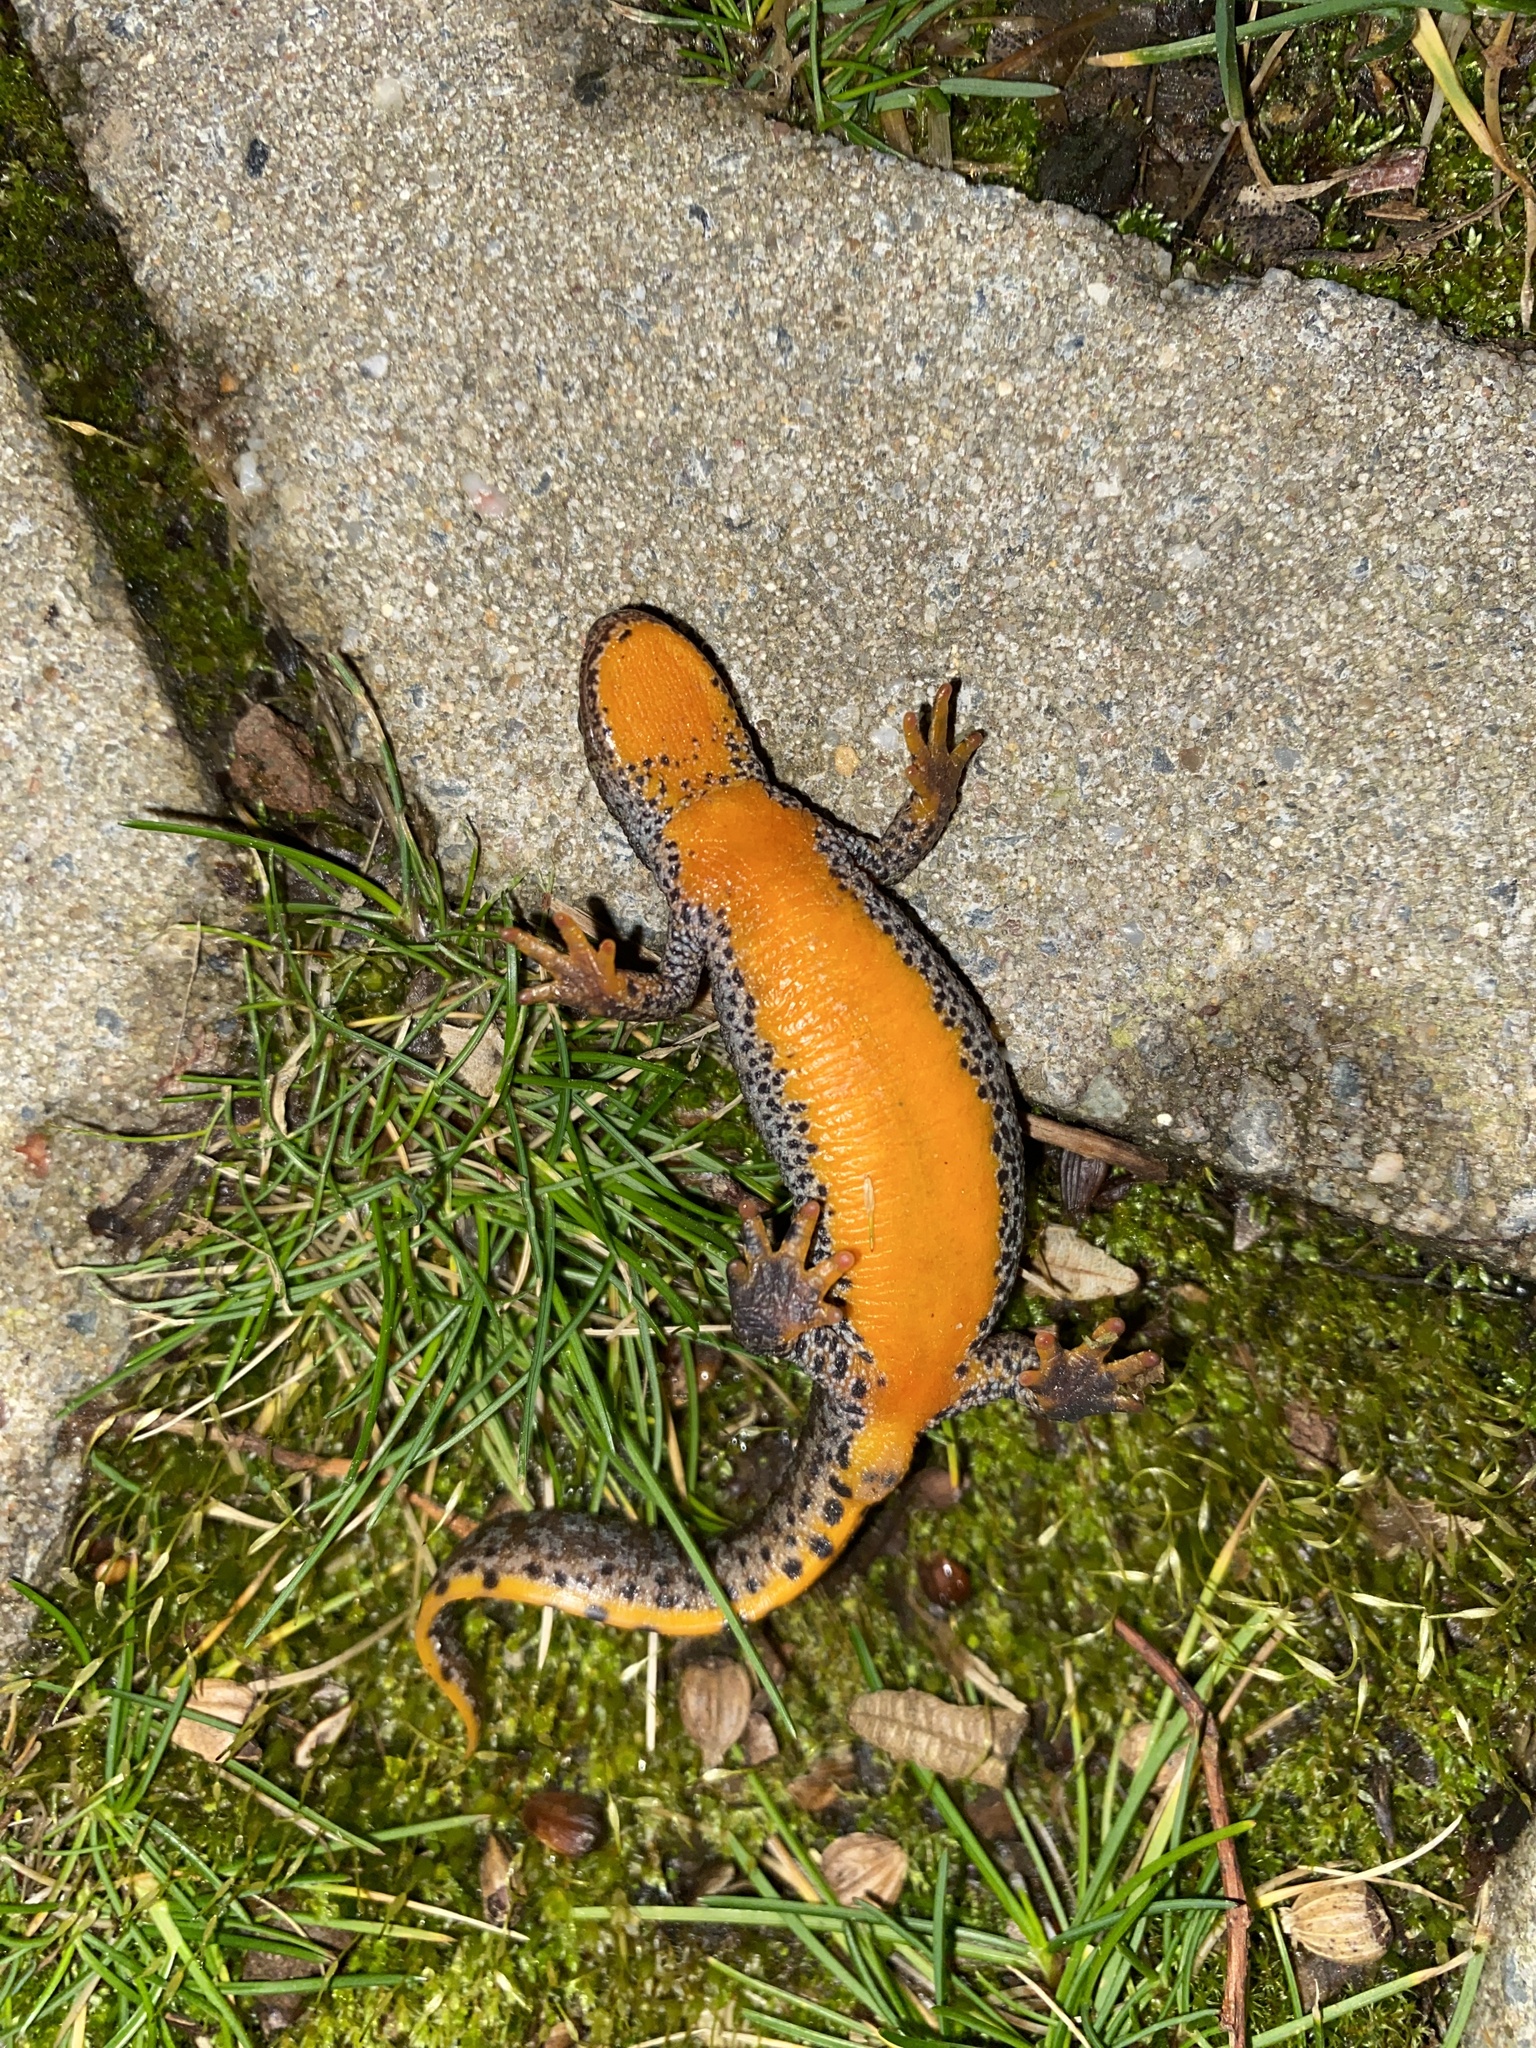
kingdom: Animalia
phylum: Chordata
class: Amphibia
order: Caudata
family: Salamandridae
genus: Ichthyosaura
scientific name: Ichthyosaura alpestris
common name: Alpine newt
